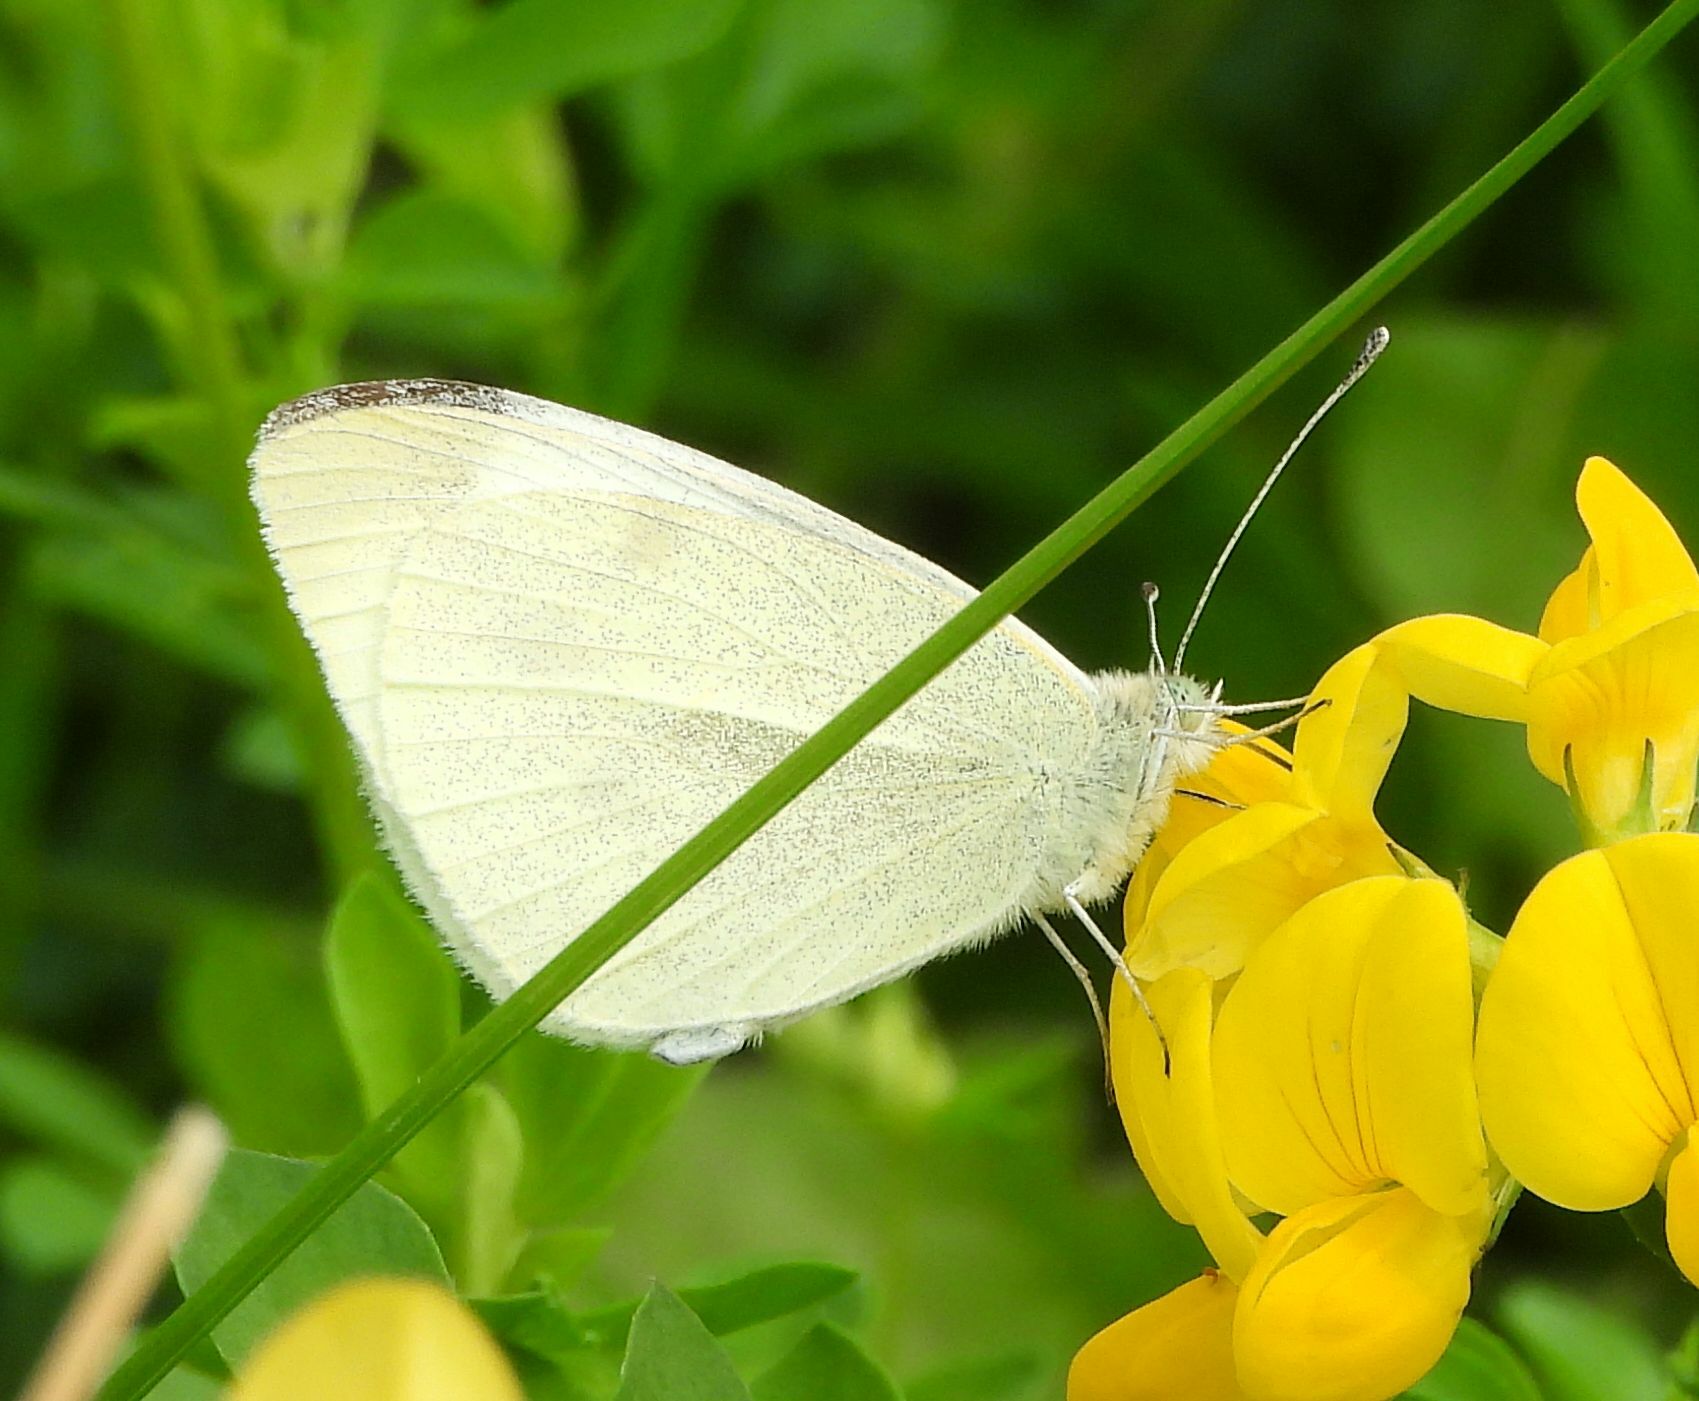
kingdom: Animalia
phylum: Arthropoda
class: Insecta
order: Lepidoptera
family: Pieridae
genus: Pieris
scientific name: Pieris rapae
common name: Small white
